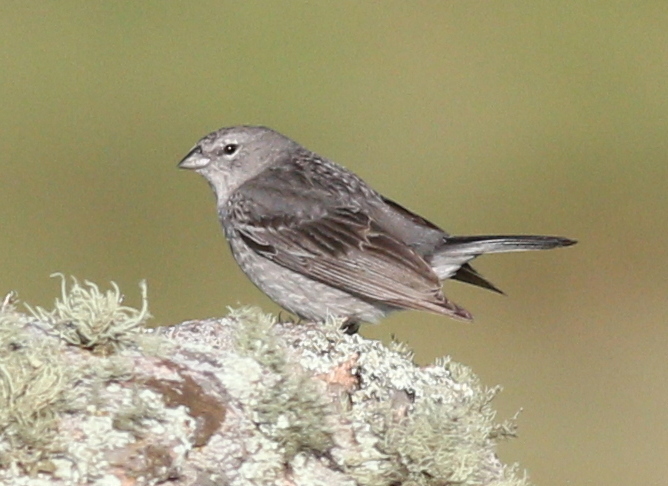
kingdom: Animalia
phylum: Chordata
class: Aves
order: Passeriformes
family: Thraupidae
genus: Geospizopsis
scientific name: Geospizopsis plebejus
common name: Ash-breasted sierra-finch
